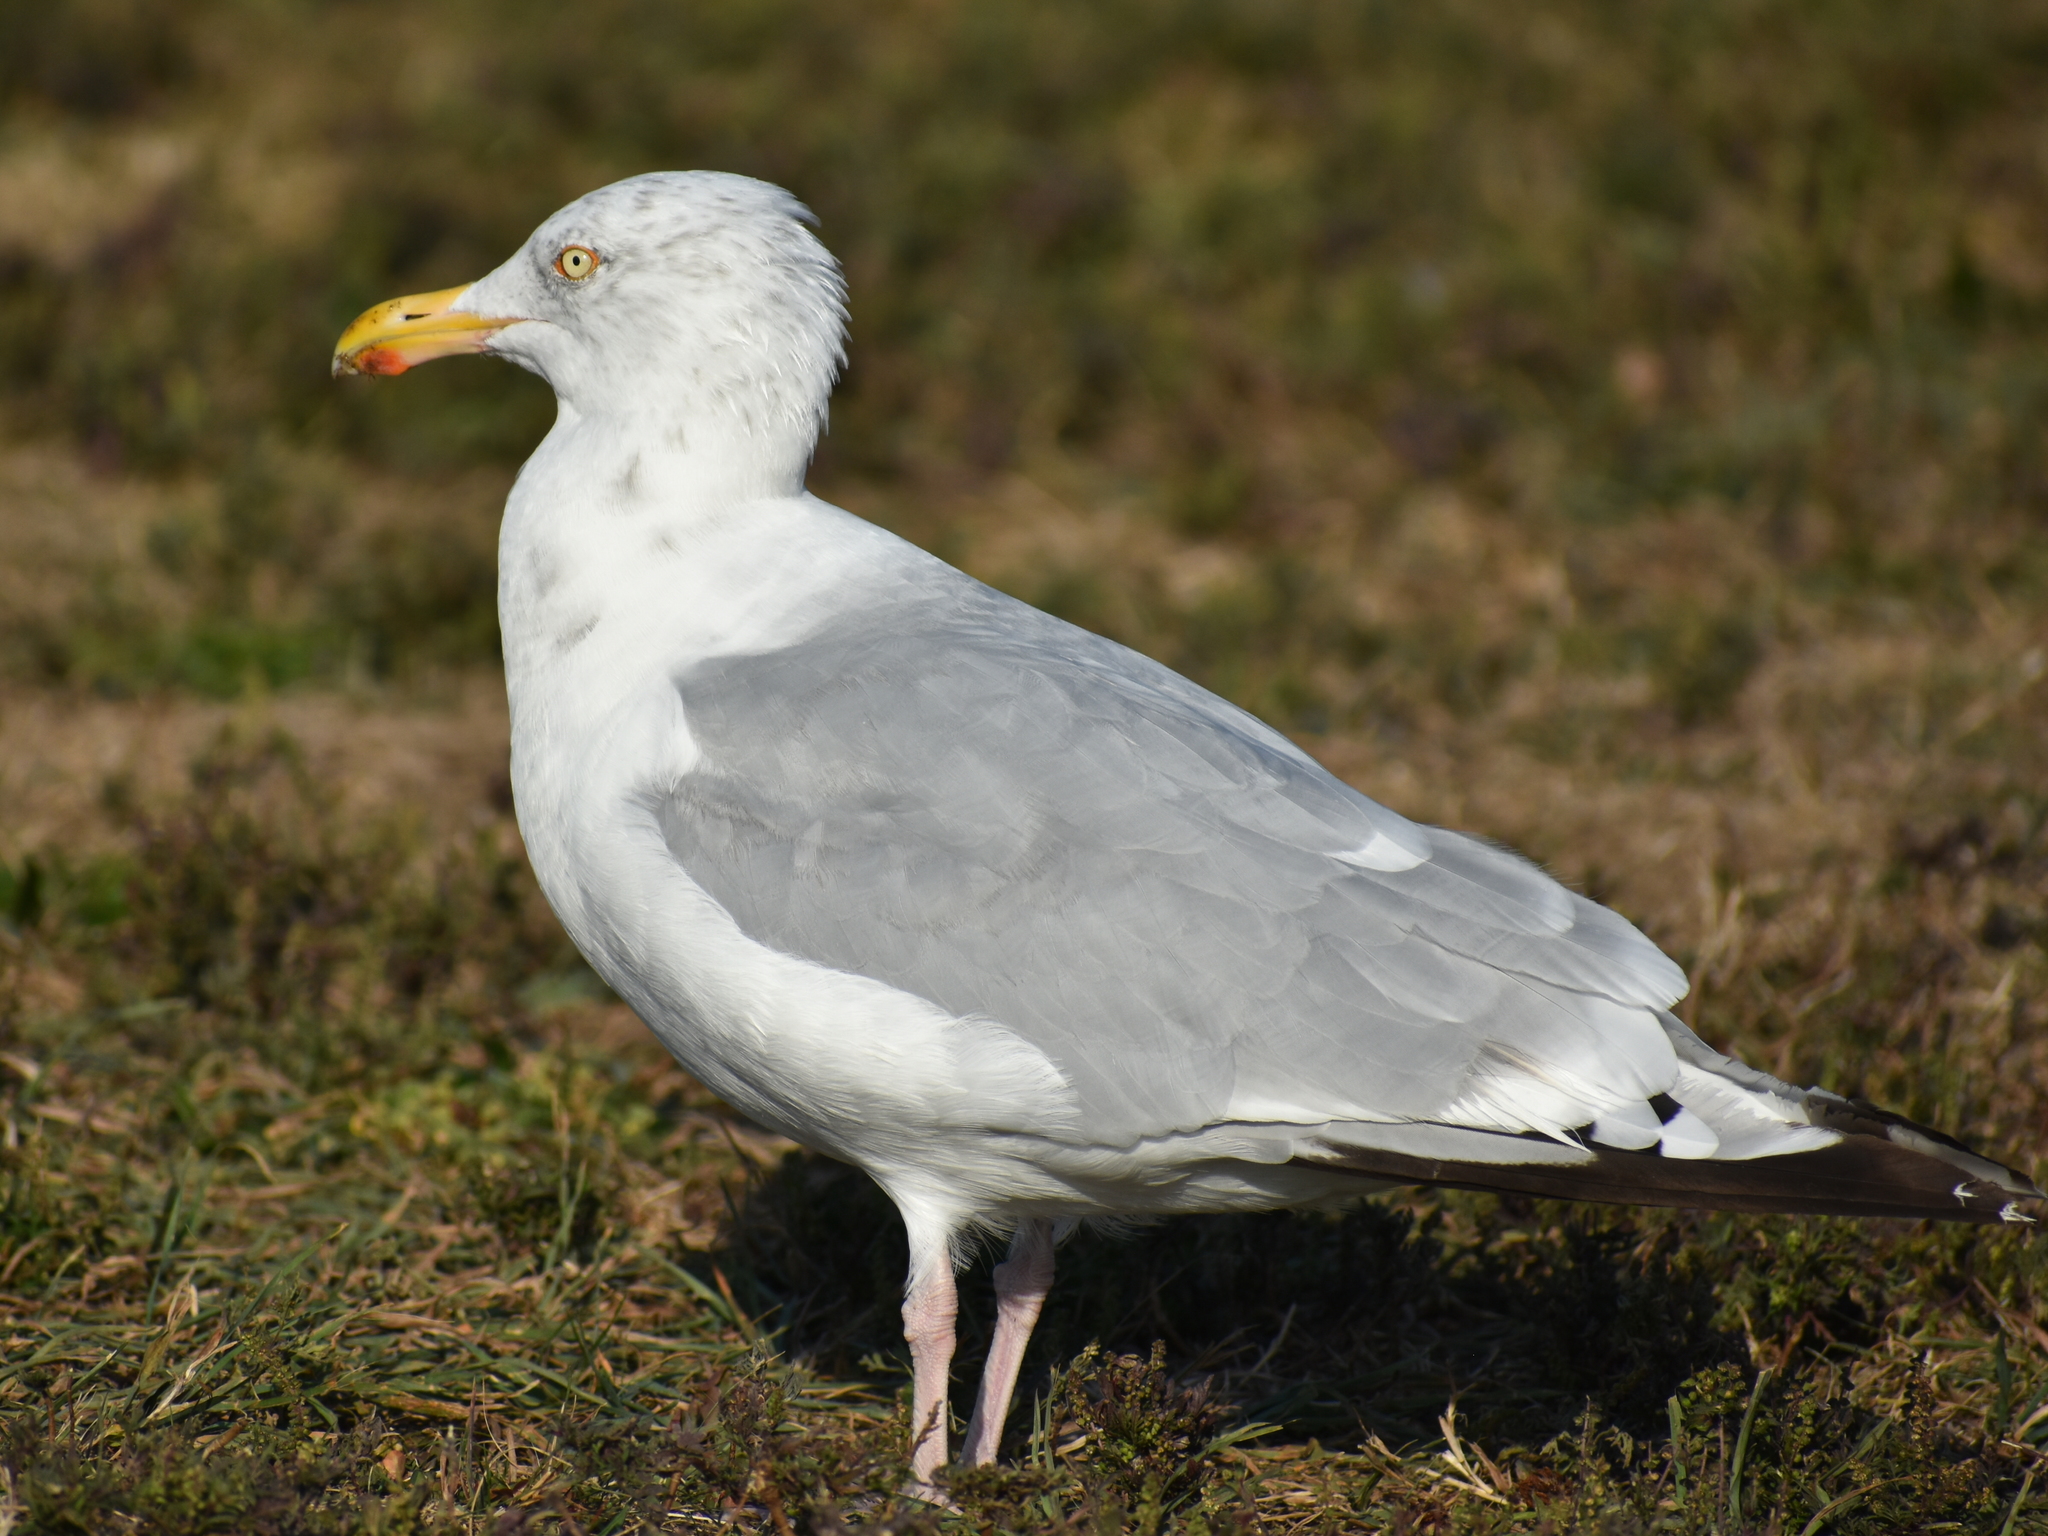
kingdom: Animalia
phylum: Chordata
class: Aves
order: Charadriiformes
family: Laridae
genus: Larus
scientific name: Larus argentatus
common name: Herring gull
